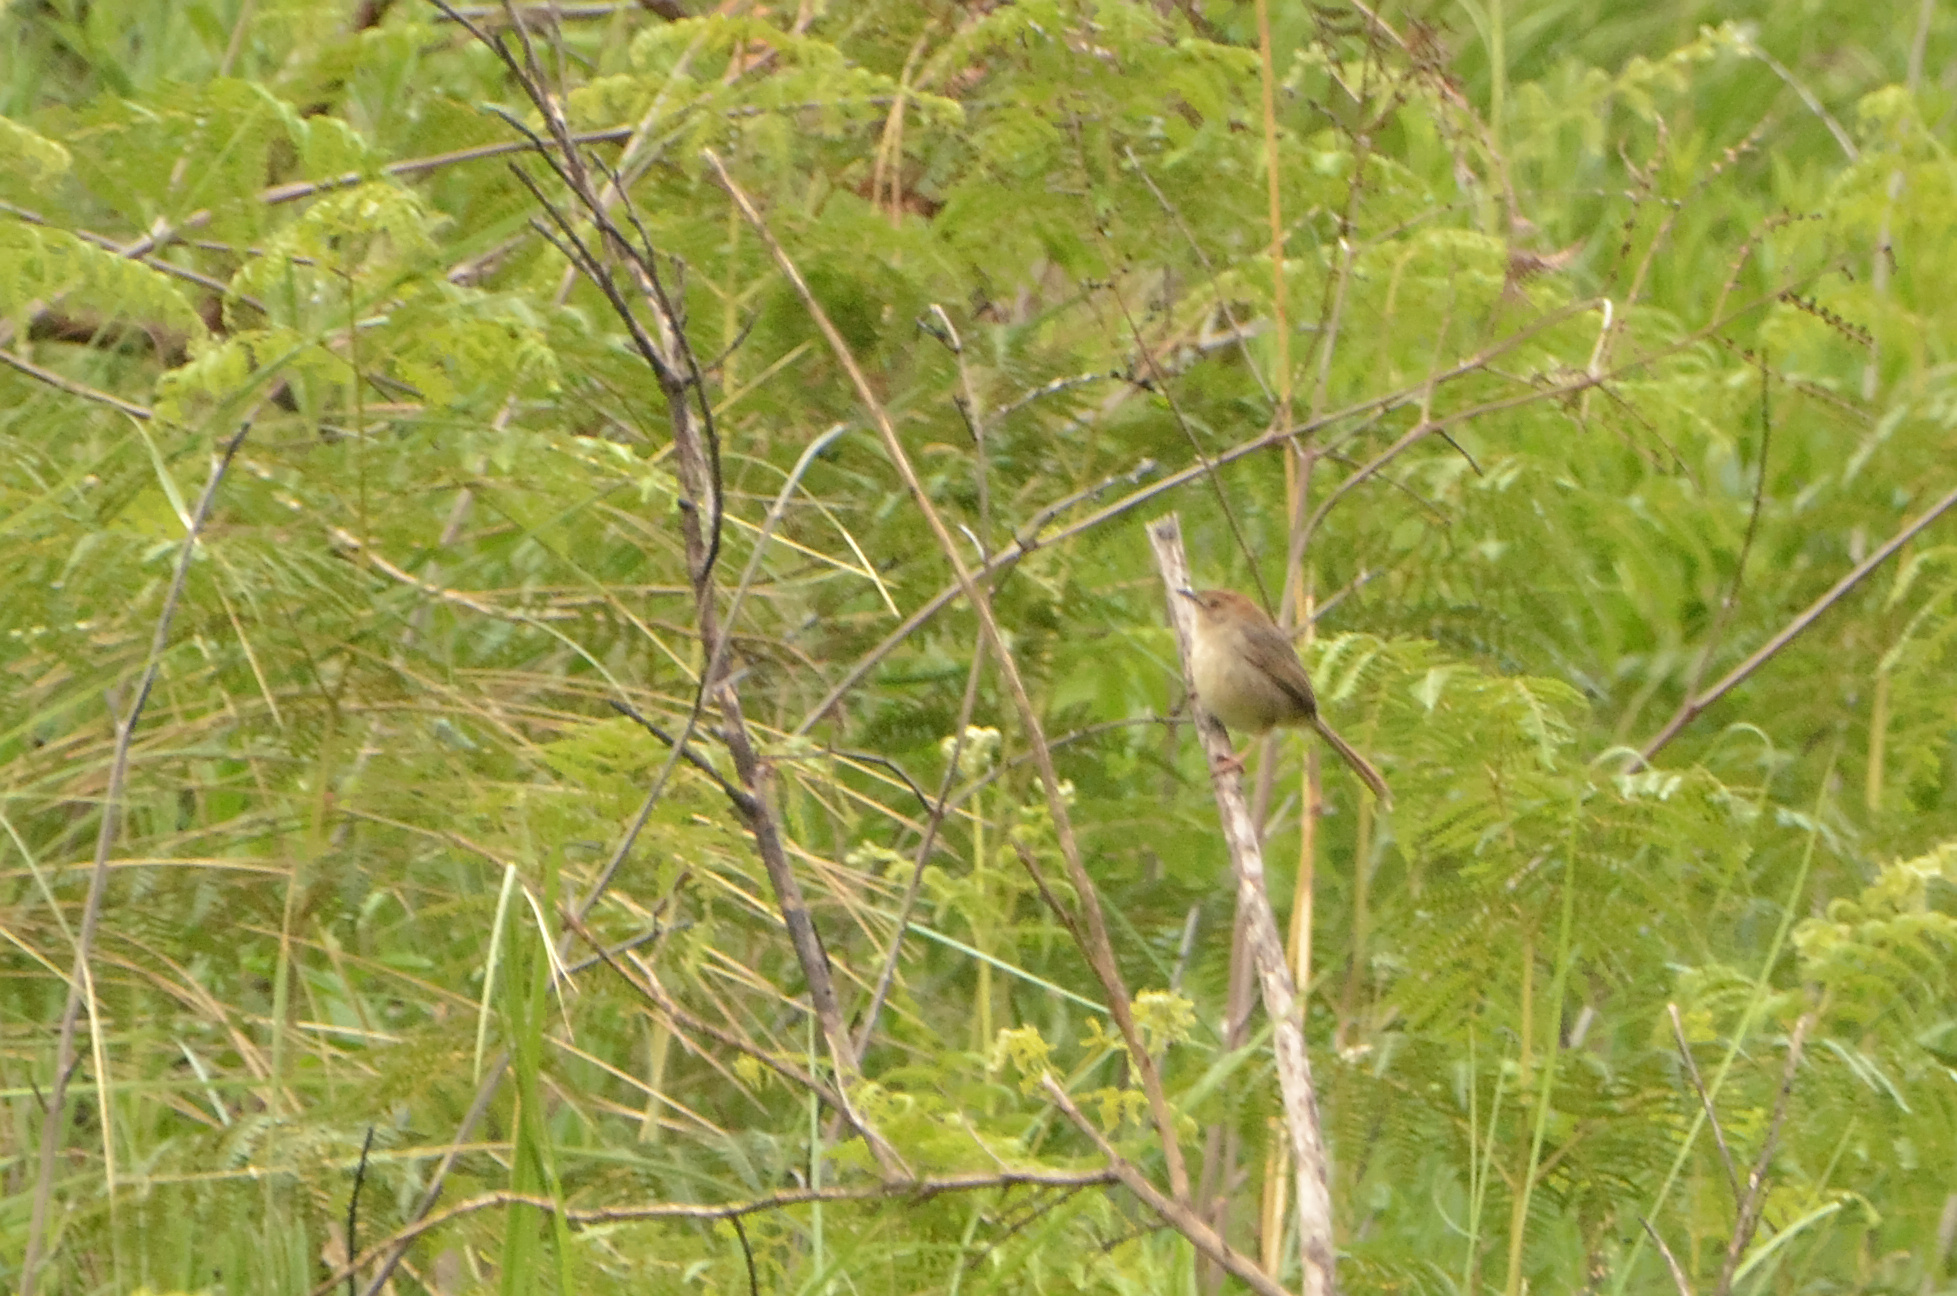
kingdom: Animalia
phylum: Chordata
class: Aves
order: Passeriformes
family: Cisticolidae
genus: Cisticola
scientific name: Cisticola aberrans
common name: Lazy cisticola
